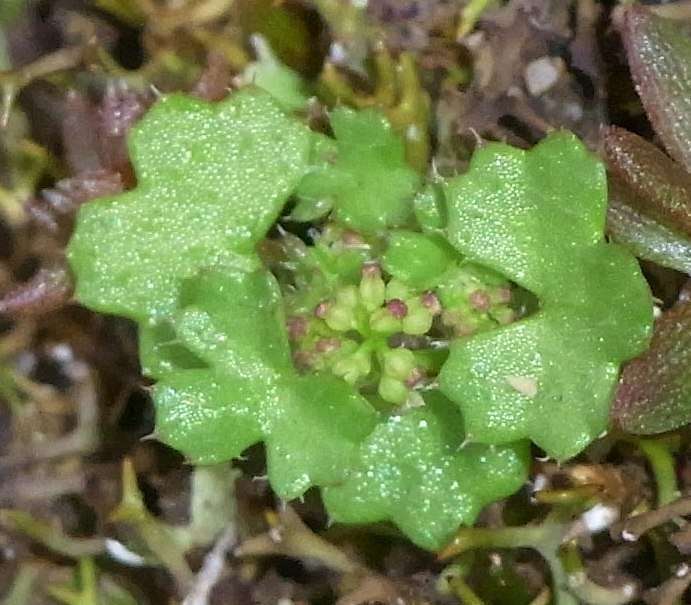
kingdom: Plantae
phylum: Tracheophyta
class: Magnoliopsida
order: Apiales
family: Araliaceae
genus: Hydrocotyle
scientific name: Hydrocotyle callicarpa
